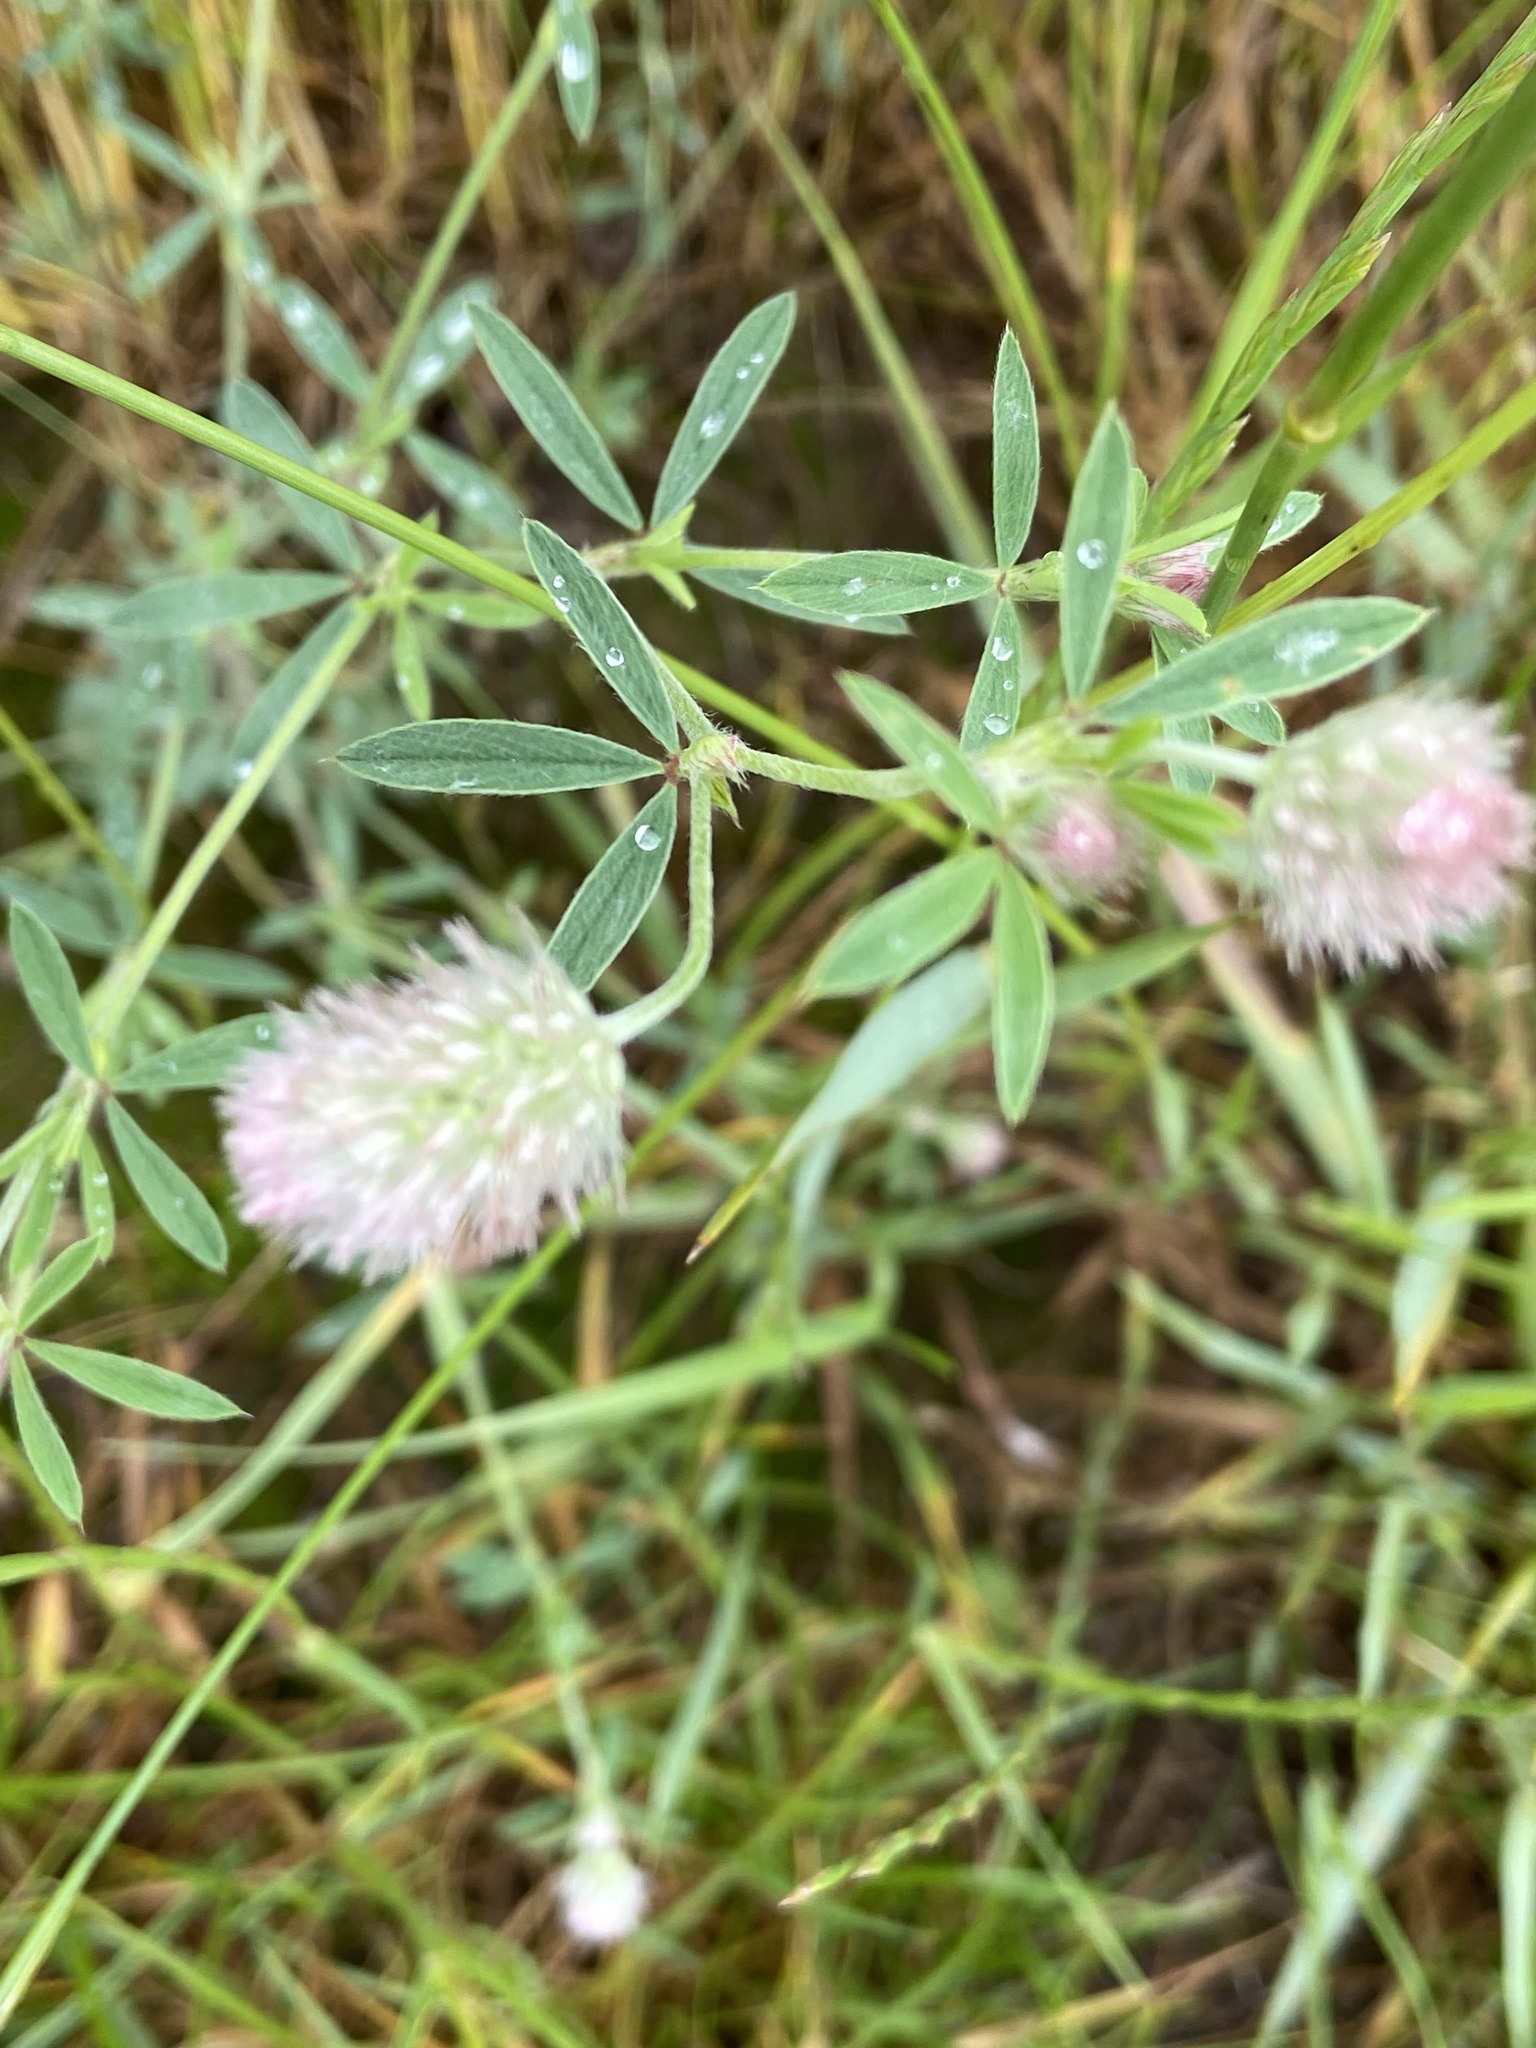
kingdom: Plantae
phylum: Tracheophyta
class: Magnoliopsida
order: Fabales
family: Fabaceae
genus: Trifolium
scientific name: Trifolium arvense
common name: Hare's-foot clover
